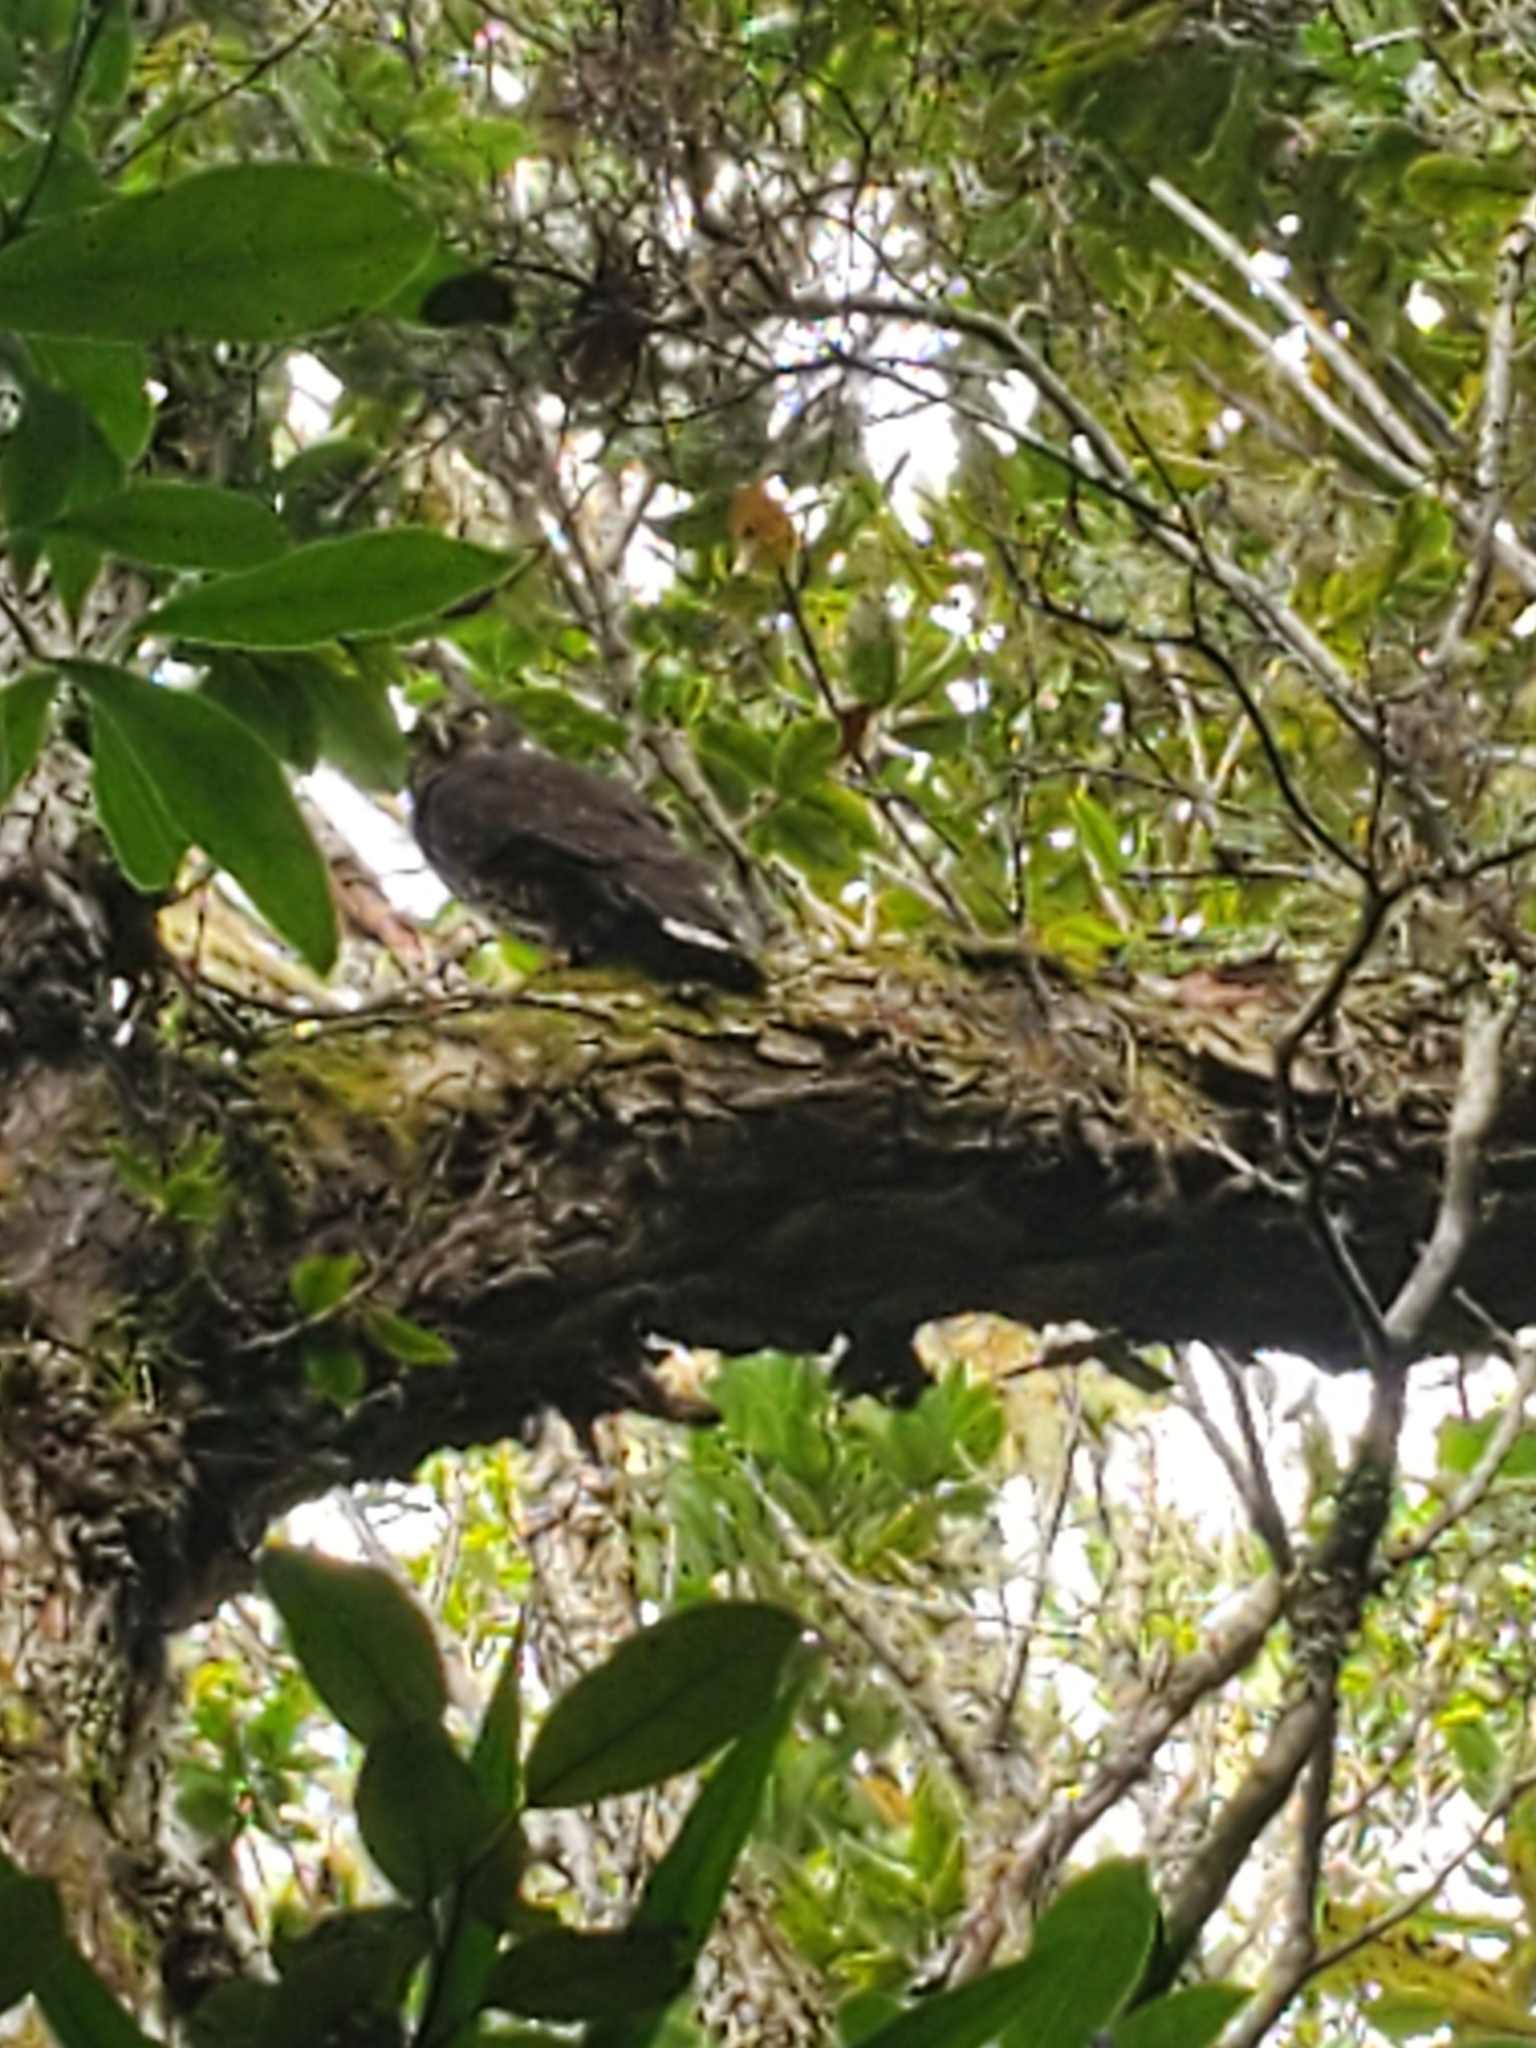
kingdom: Animalia
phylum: Chordata
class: Aves
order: Strigiformes
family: Strigidae
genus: Ninox
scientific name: Ninox novaeseelandiae
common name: Morepork
